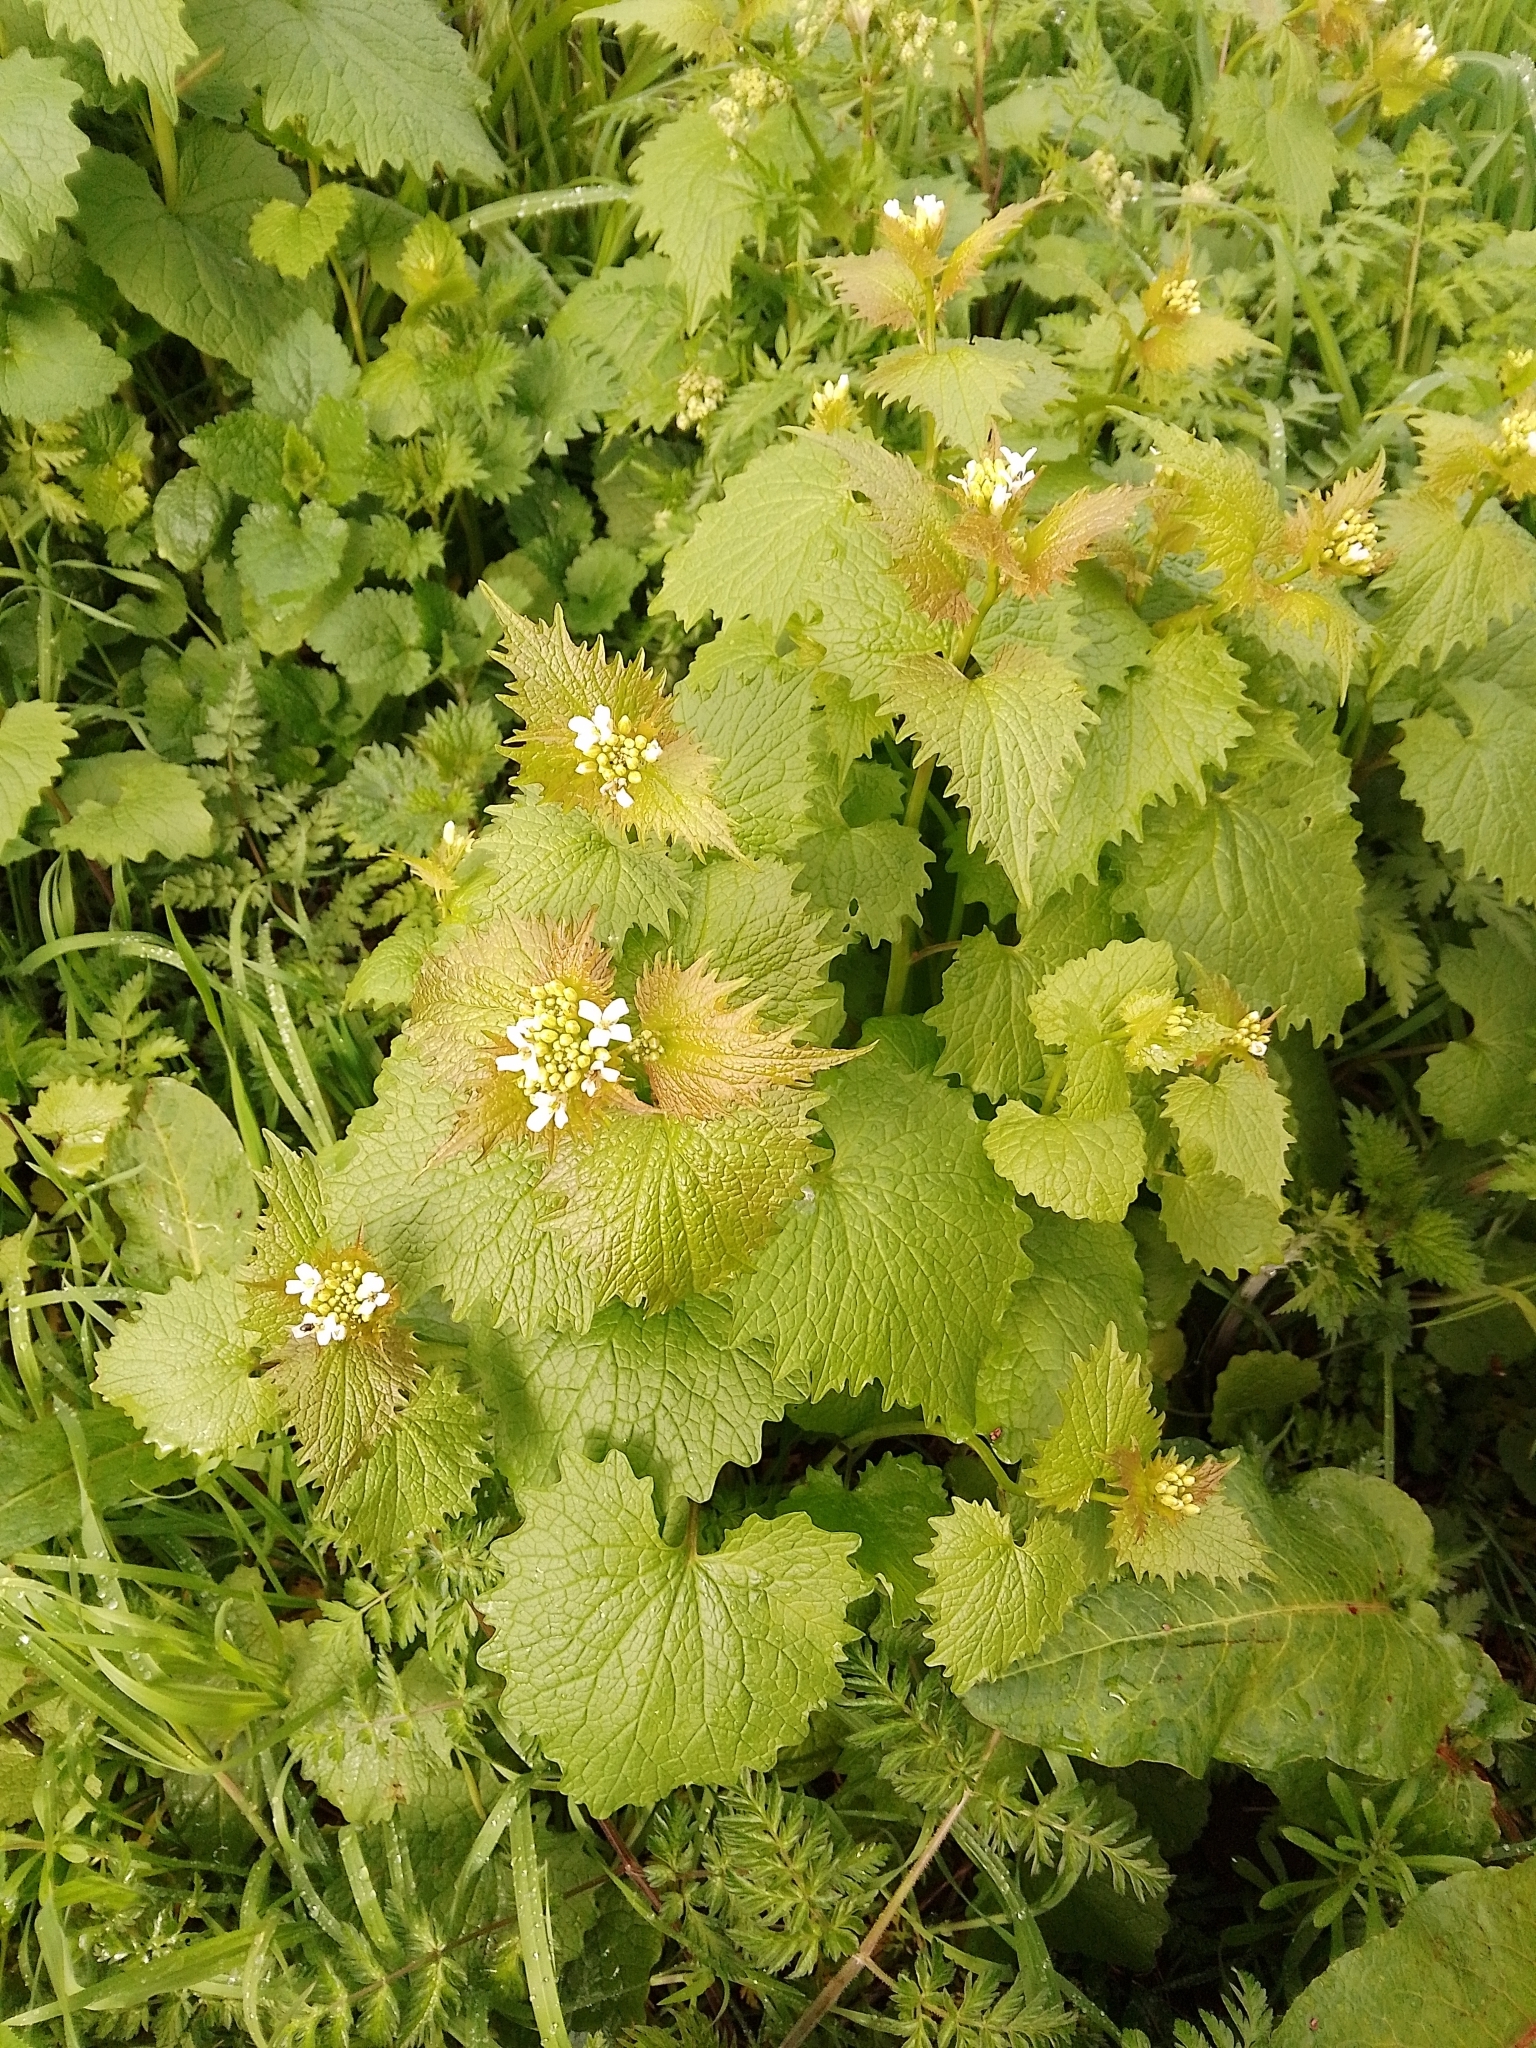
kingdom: Plantae
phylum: Tracheophyta
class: Magnoliopsida
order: Brassicales
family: Brassicaceae
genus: Alliaria
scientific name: Alliaria petiolata
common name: Garlic mustard
